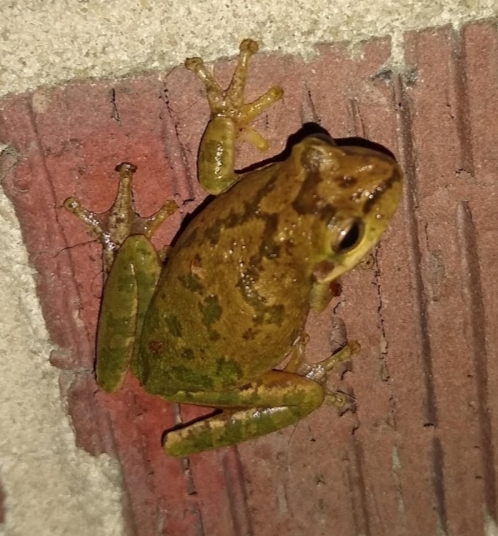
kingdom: Animalia
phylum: Chordata
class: Amphibia
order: Anura
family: Hylidae
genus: Dryophytes
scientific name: Dryophytes squirellus
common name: Squirrel treefrog
